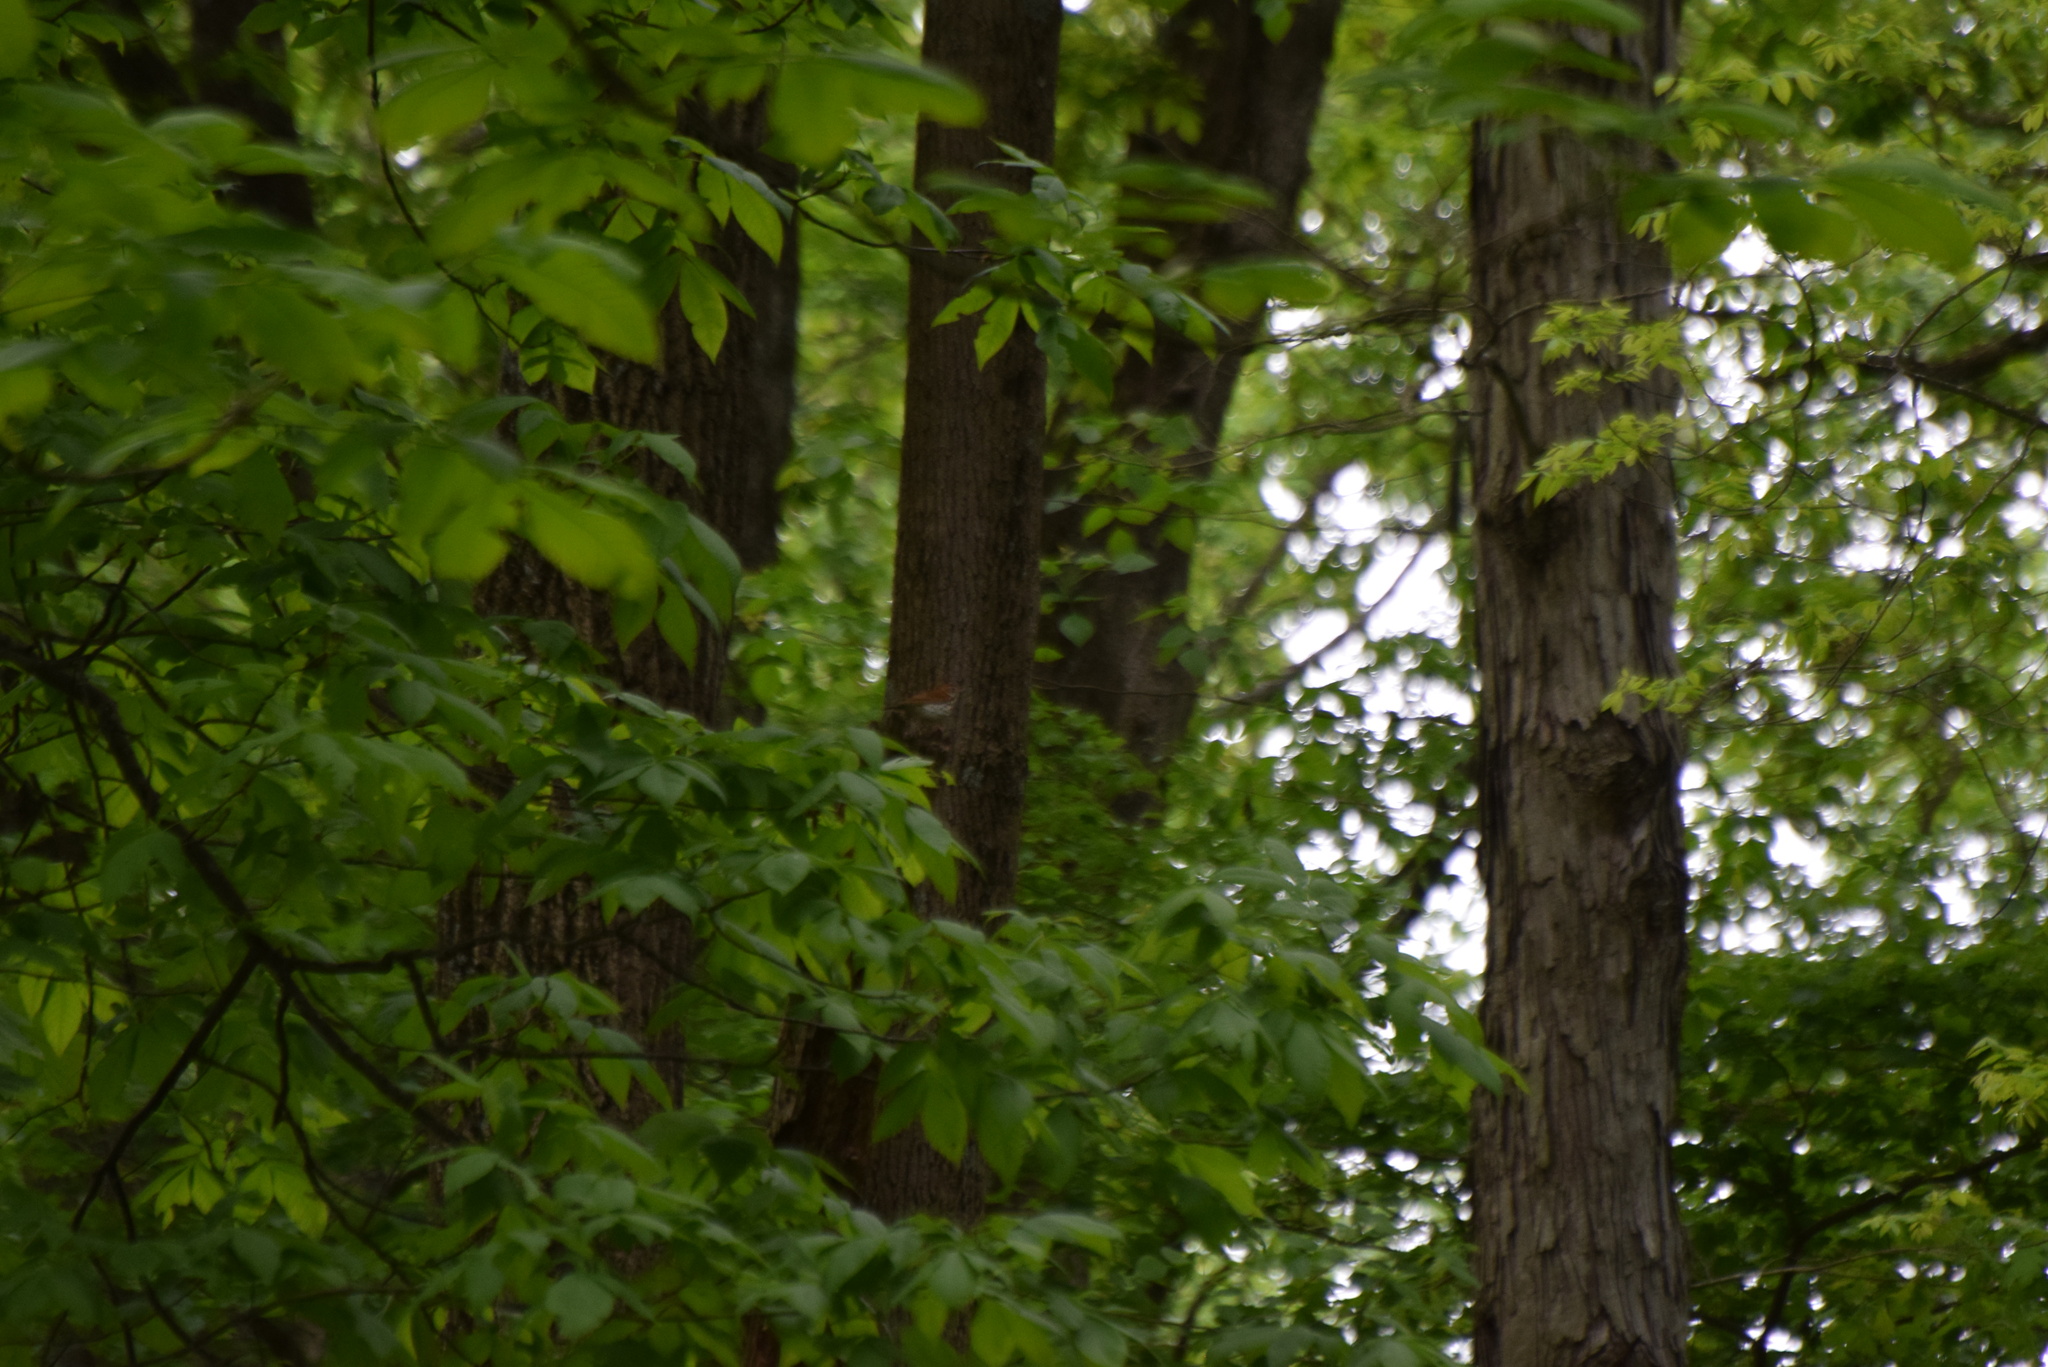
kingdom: Animalia
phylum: Chordata
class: Aves
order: Passeriformes
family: Turdidae
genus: Hylocichla
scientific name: Hylocichla mustelina
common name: Wood thrush
